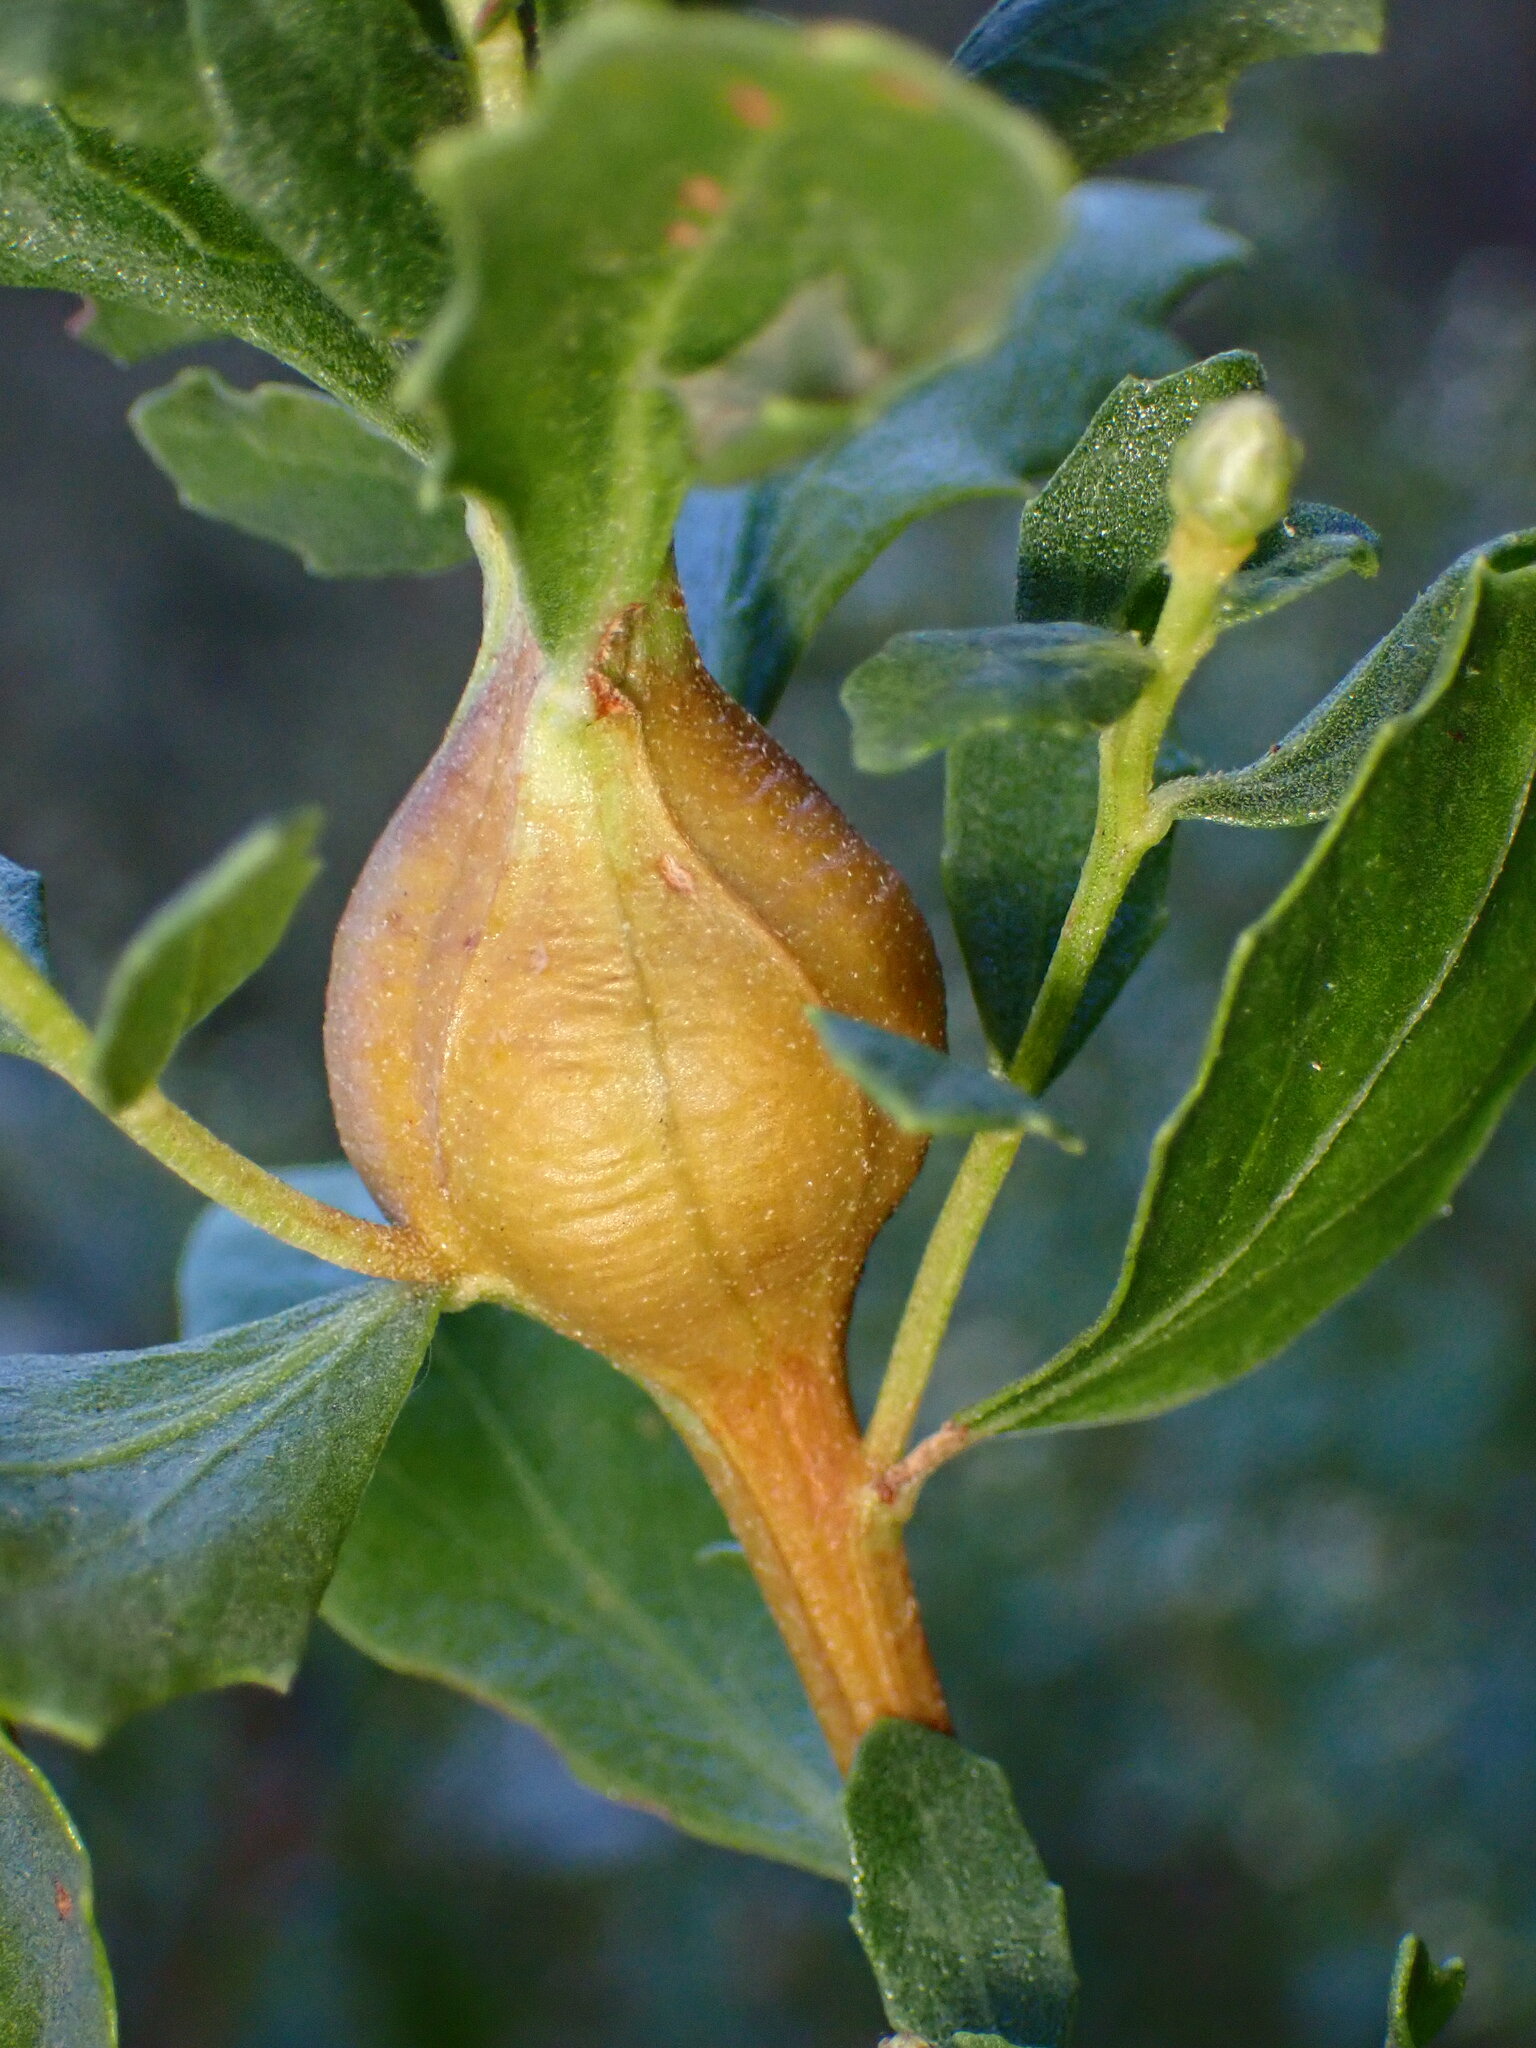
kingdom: Animalia
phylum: Arthropoda
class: Insecta
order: Lepidoptera
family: Gelechiidae
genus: Gnorimoschema
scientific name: Gnorimoschema baccharisella
